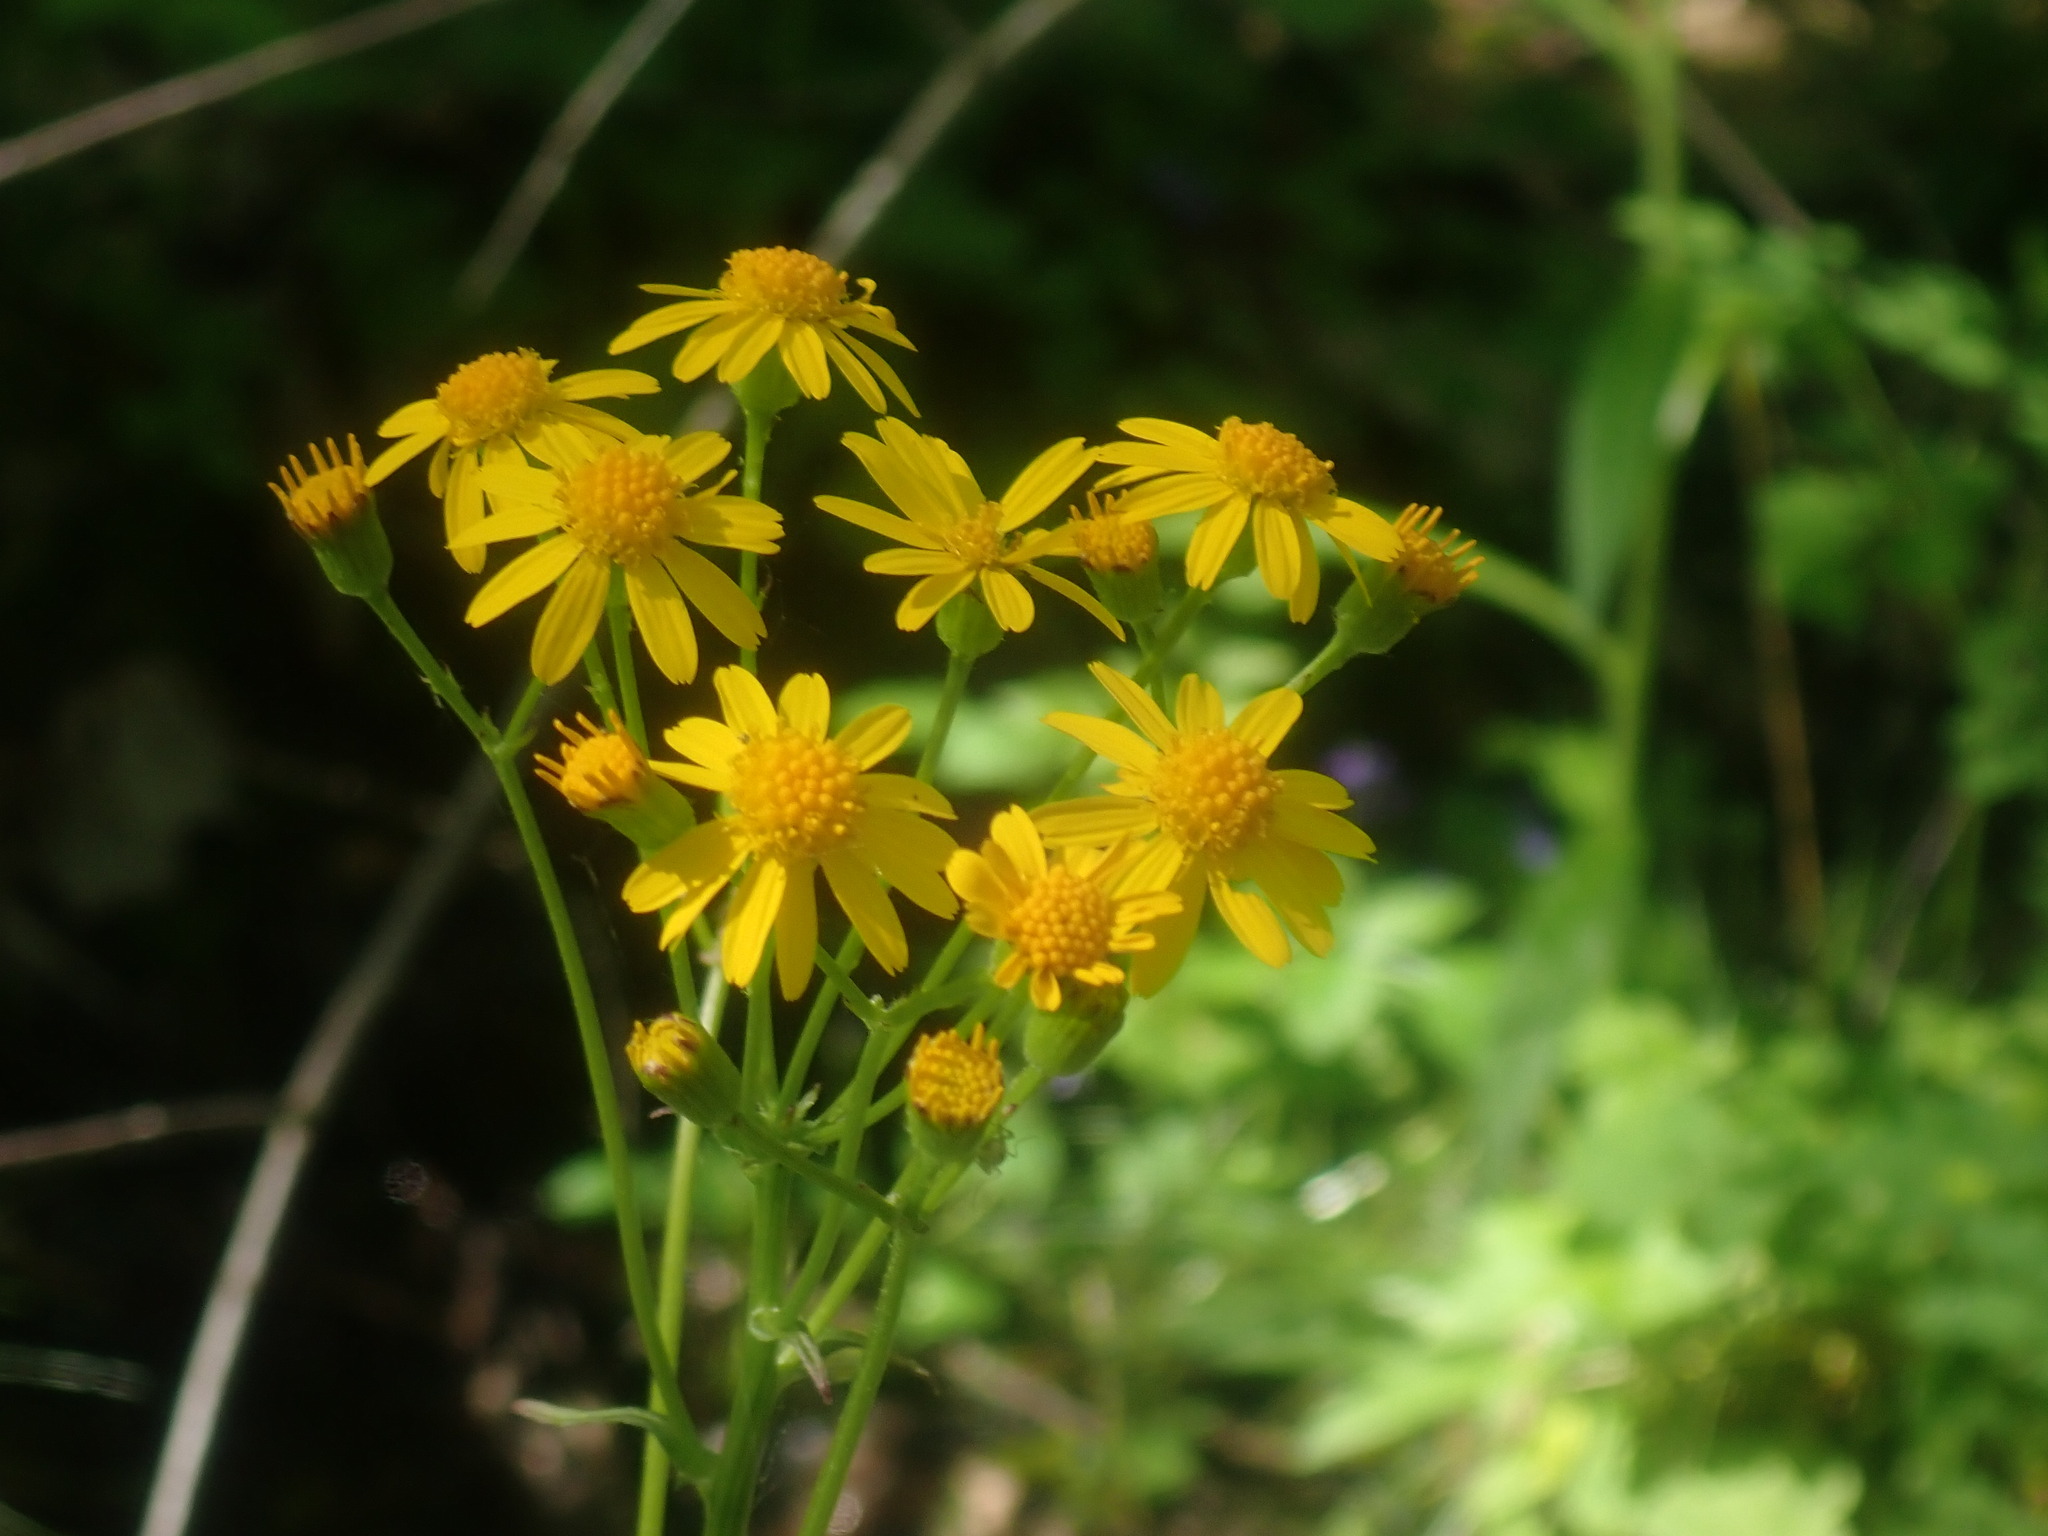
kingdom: Plantae
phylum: Tracheophyta
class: Magnoliopsida
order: Asterales
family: Asteraceae
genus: Packera
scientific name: Packera aurea
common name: Golden groundsel
